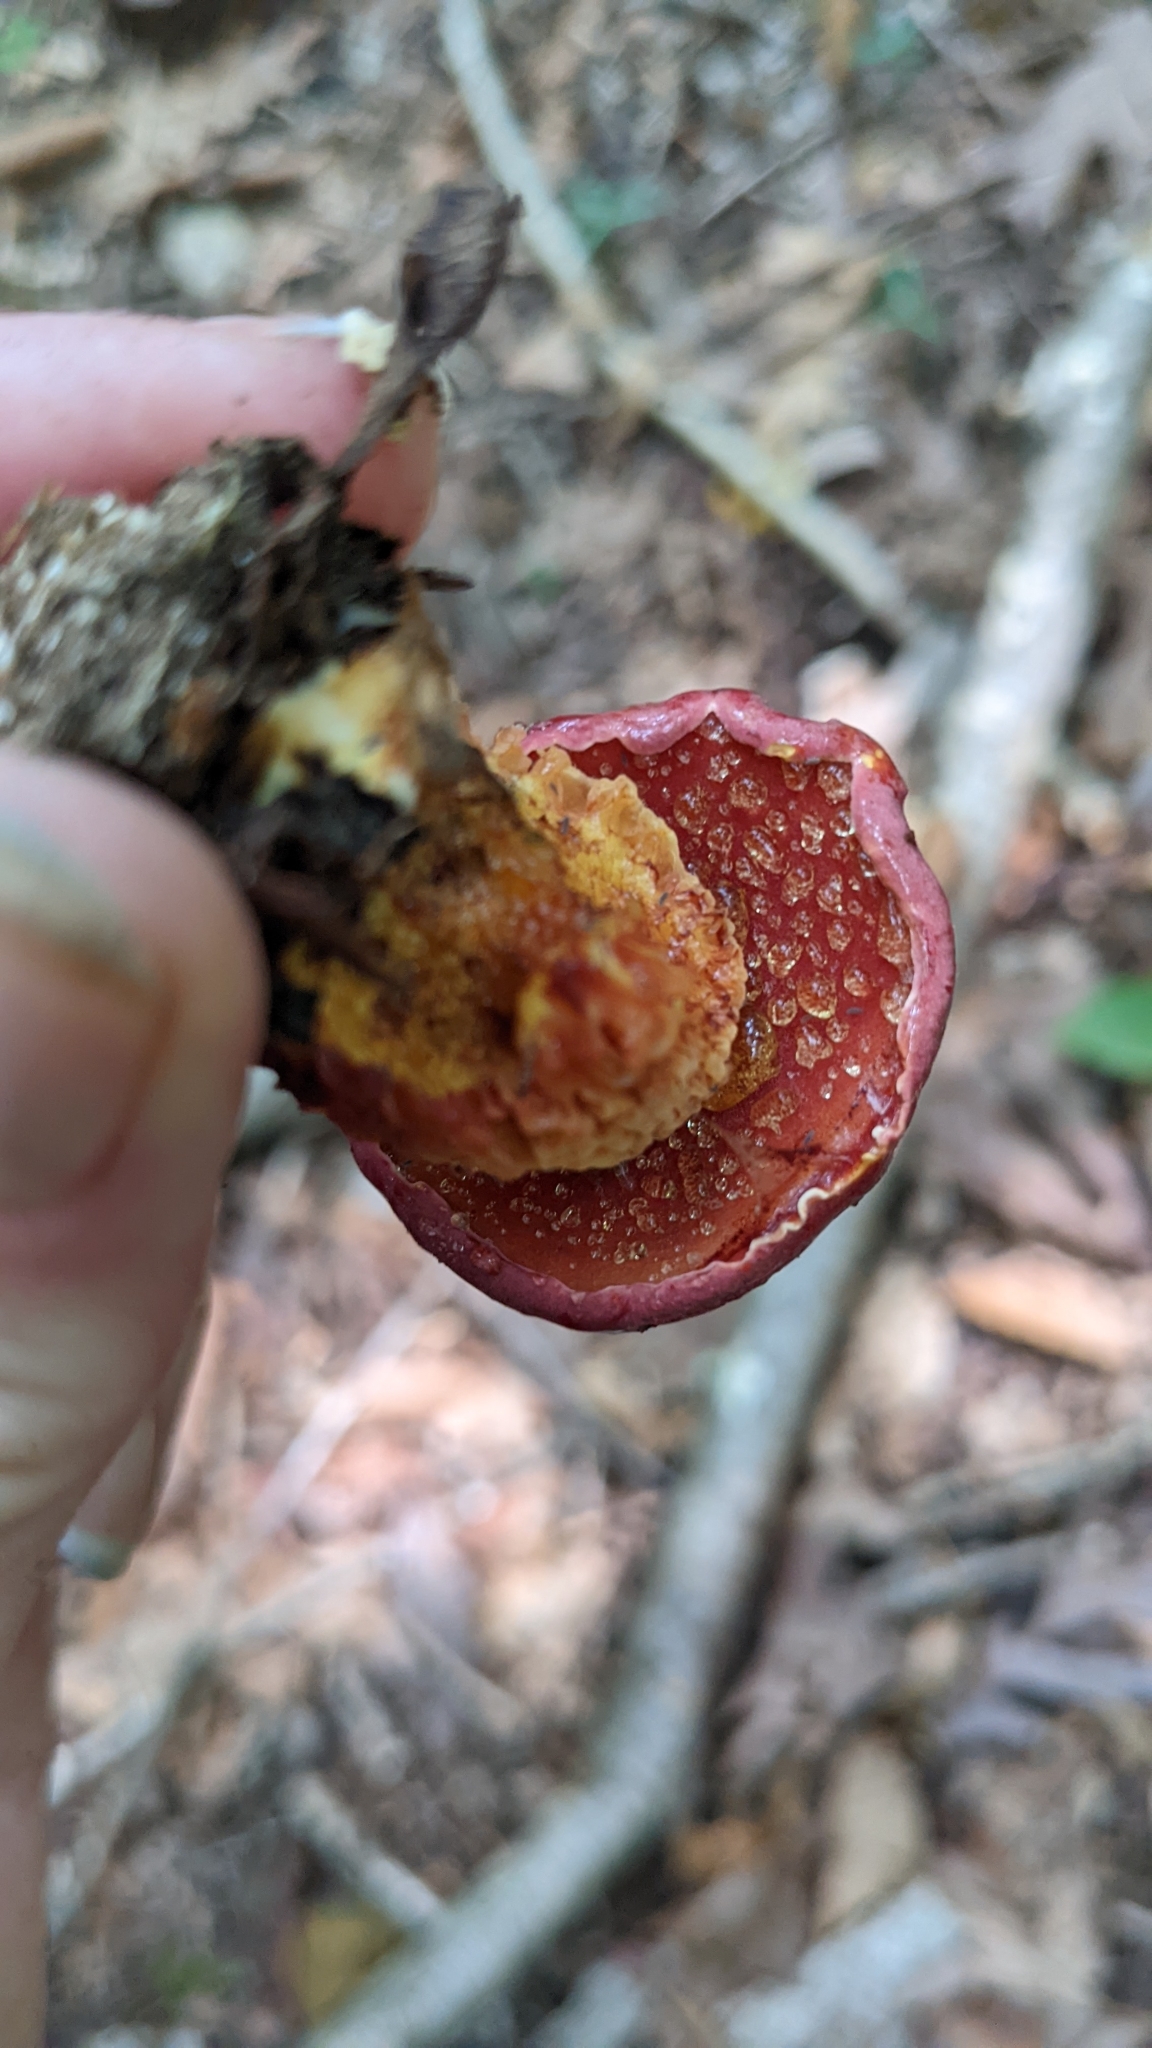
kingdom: Fungi
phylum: Basidiomycota
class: Agaricomycetes
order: Boletales
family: Boletaceae
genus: Butyriboletus
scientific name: Butyriboletus frostii
